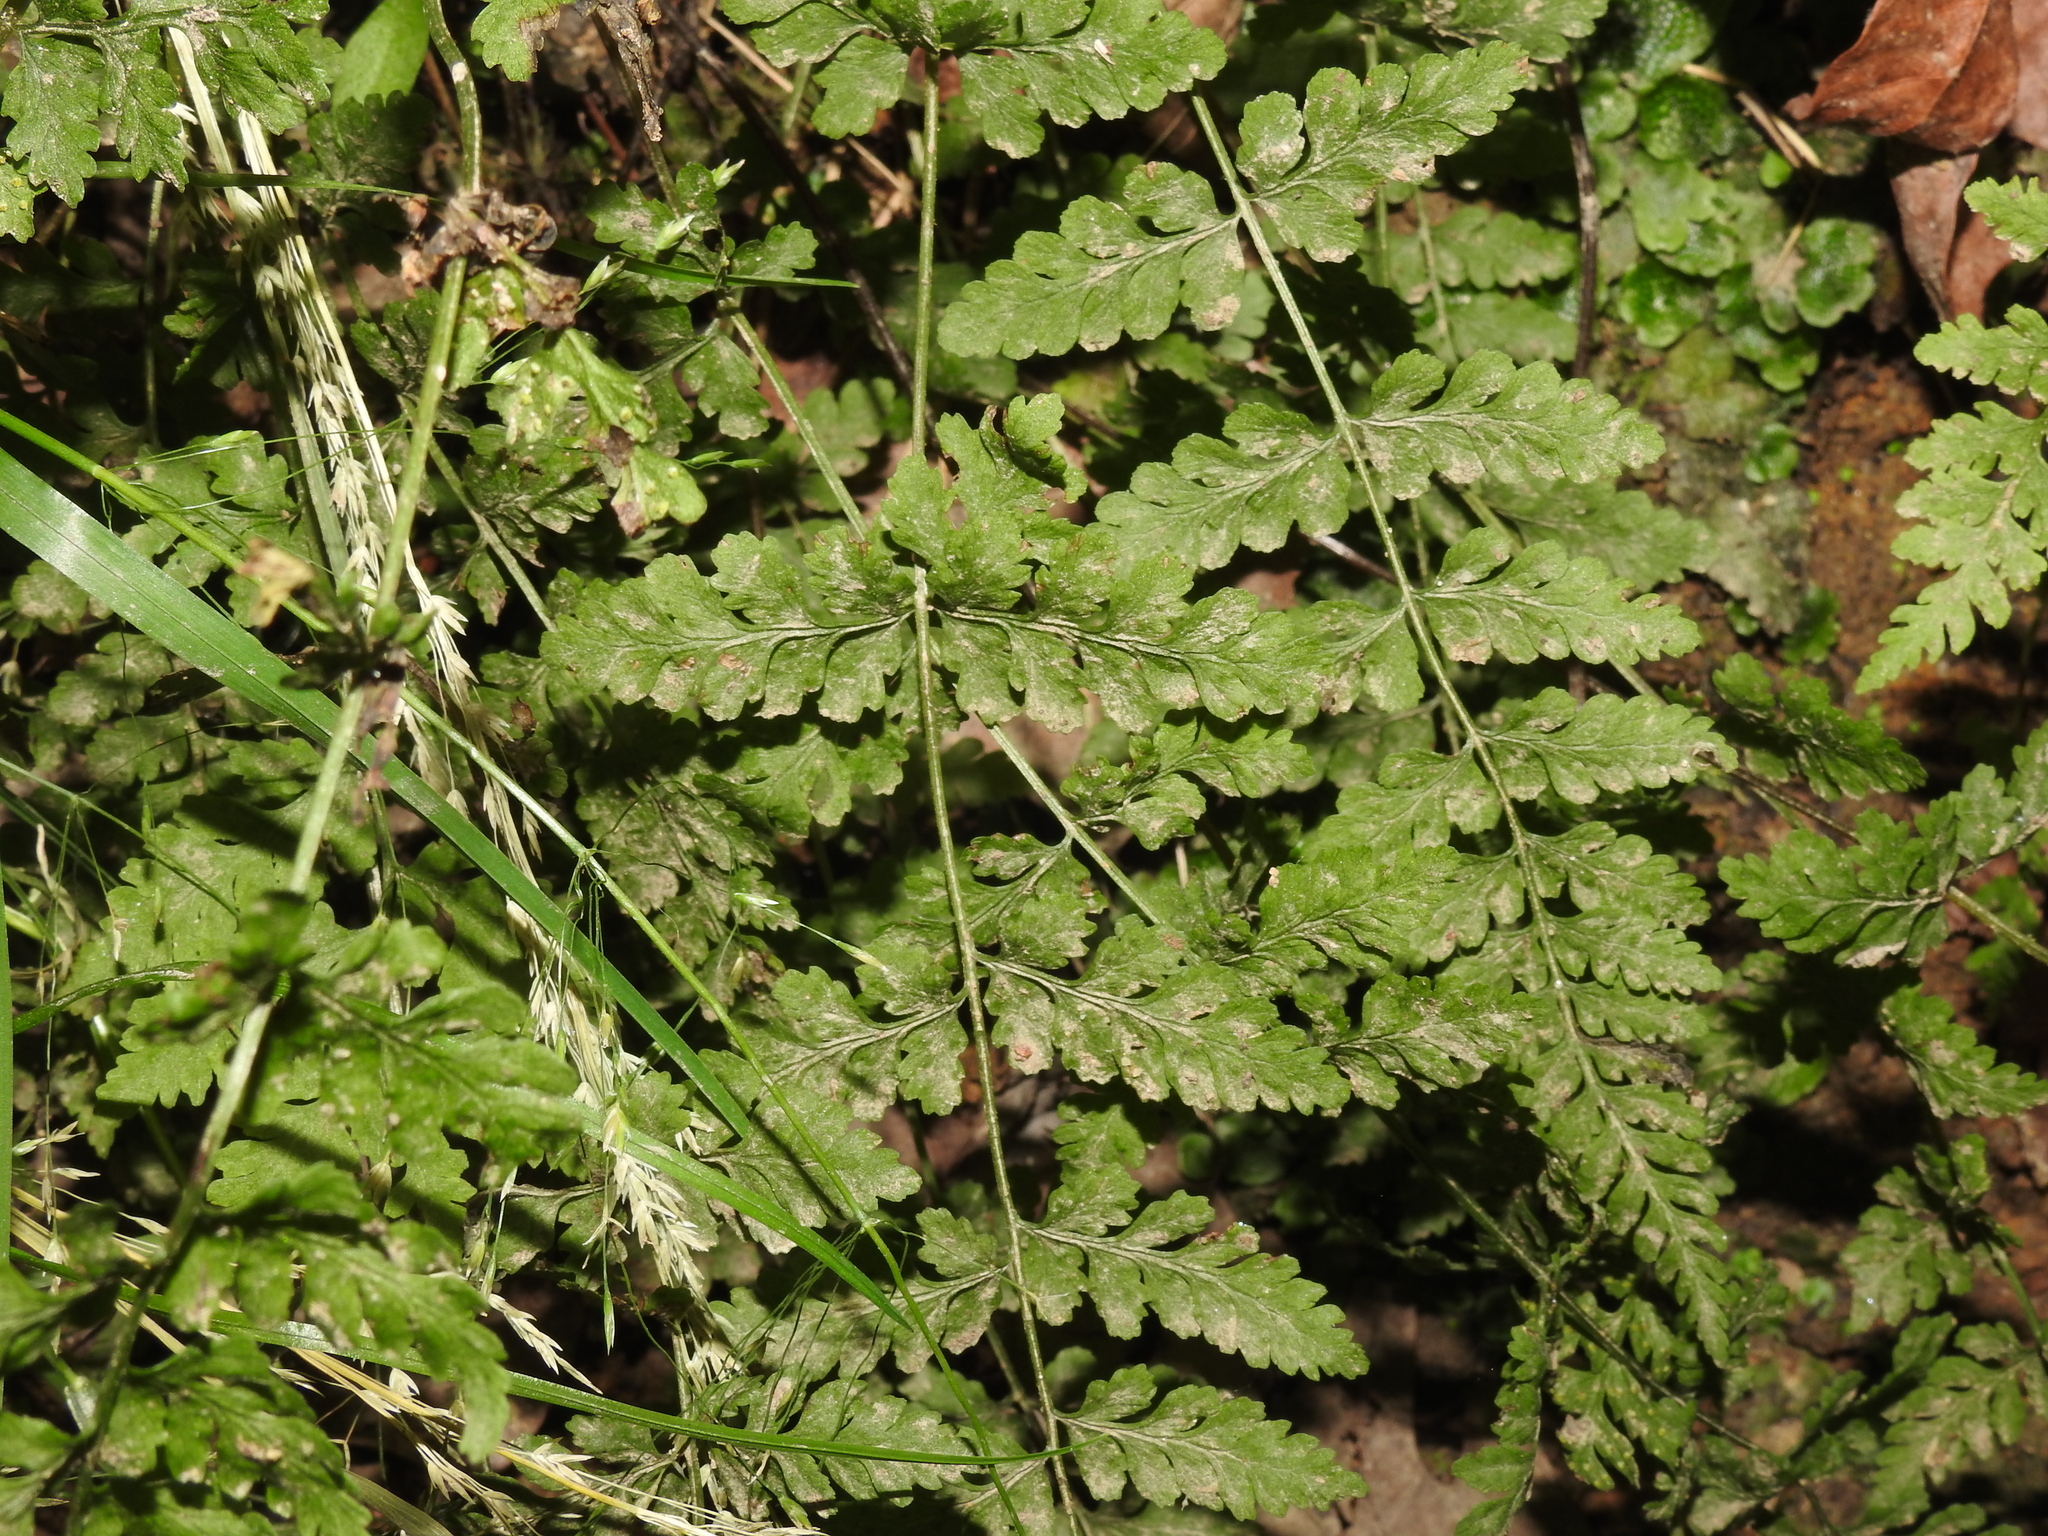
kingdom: Plantae
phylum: Tracheophyta
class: Polypodiopsida
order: Polypodiales
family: Woodsiaceae
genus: Physematium
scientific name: Physematium obtusum
